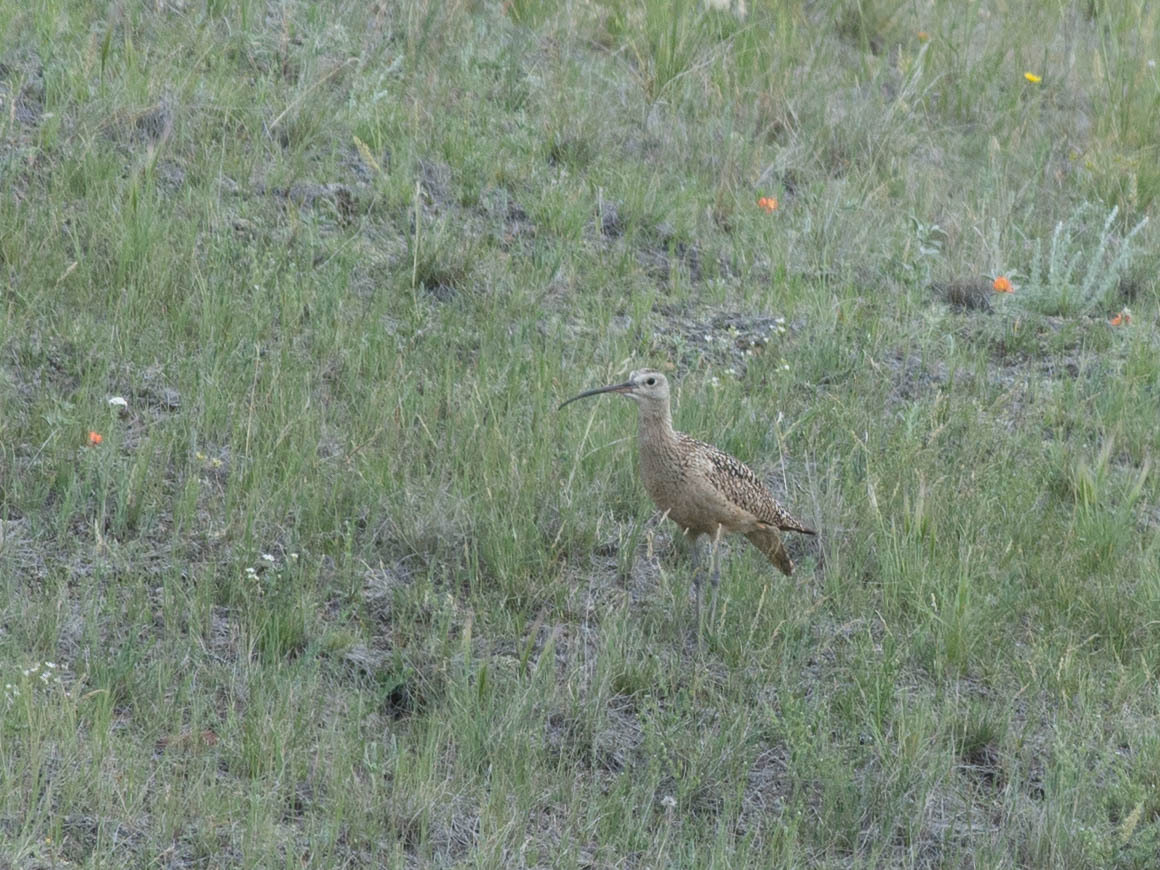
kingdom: Animalia
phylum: Chordata
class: Aves
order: Charadriiformes
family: Scolopacidae
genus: Numenius
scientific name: Numenius americanus
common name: Long-billed curlew
